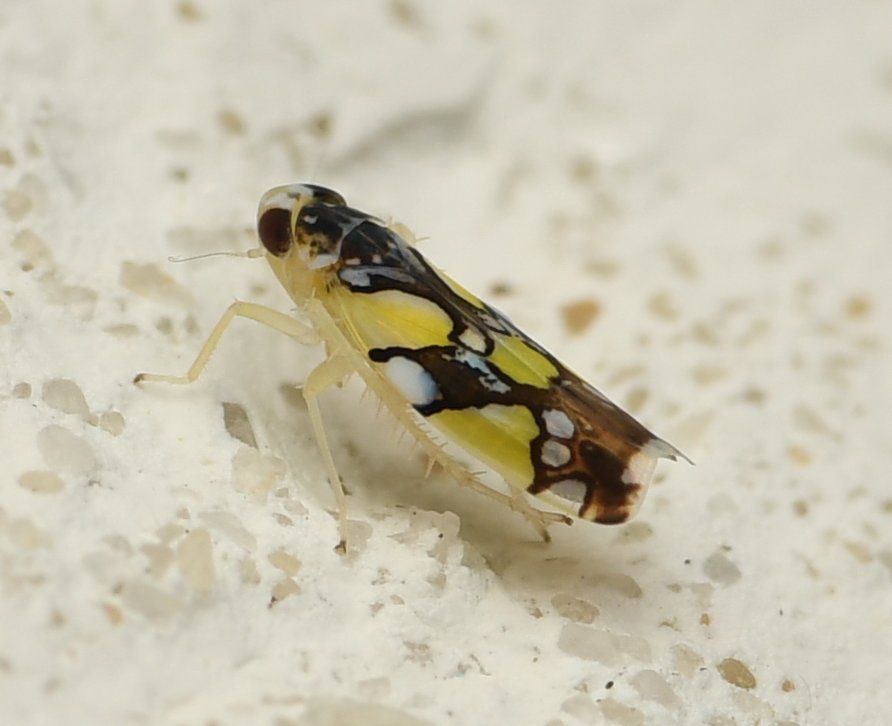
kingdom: Animalia
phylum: Arthropoda
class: Insecta
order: Hemiptera
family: Cicadellidae
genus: Protalebrella
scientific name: Protalebrella brasiliensis
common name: Brasilian leafhopper
